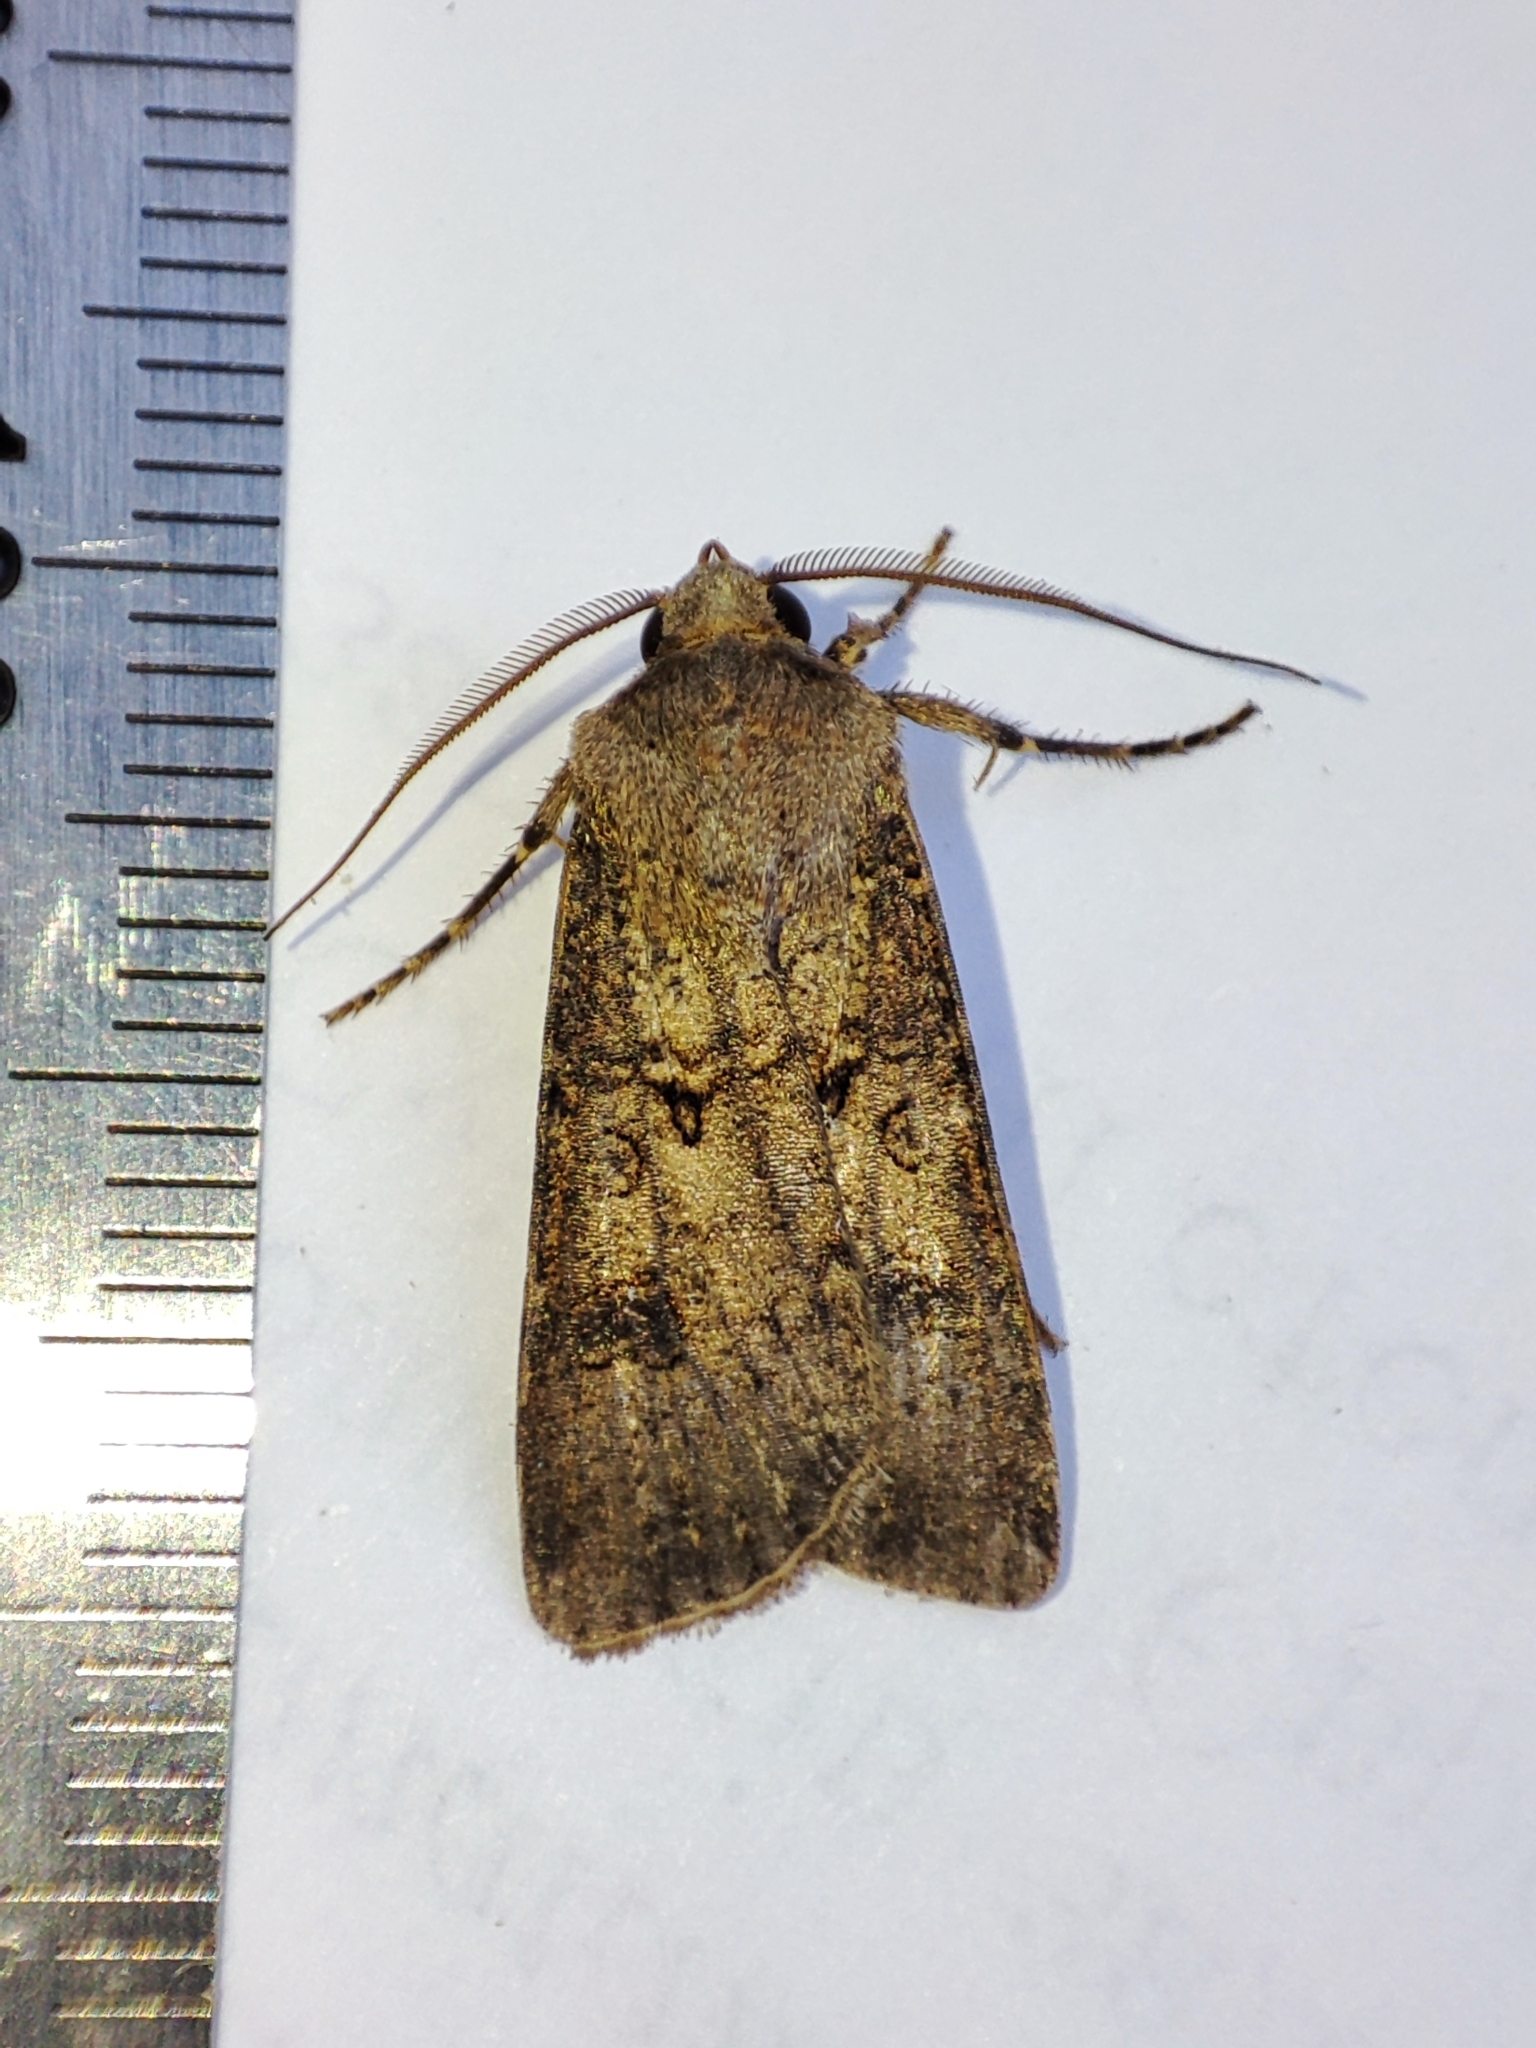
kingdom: Animalia
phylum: Arthropoda
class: Insecta
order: Lepidoptera
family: Noctuidae
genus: Agrotis
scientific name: Agrotis segetum
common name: Turnip moth
